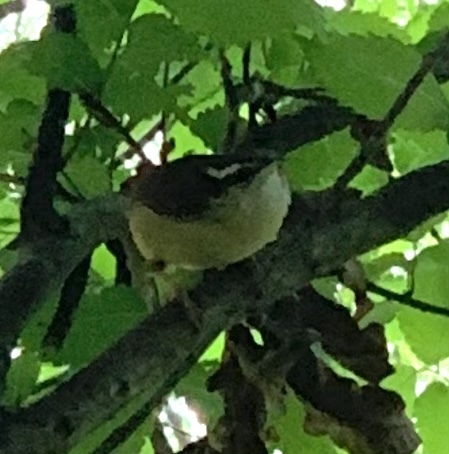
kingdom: Animalia
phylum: Chordata
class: Aves
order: Passeriformes
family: Troglodytidae
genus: Thryothorus
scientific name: Thryothorus ludovicianus
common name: Carolina wren
